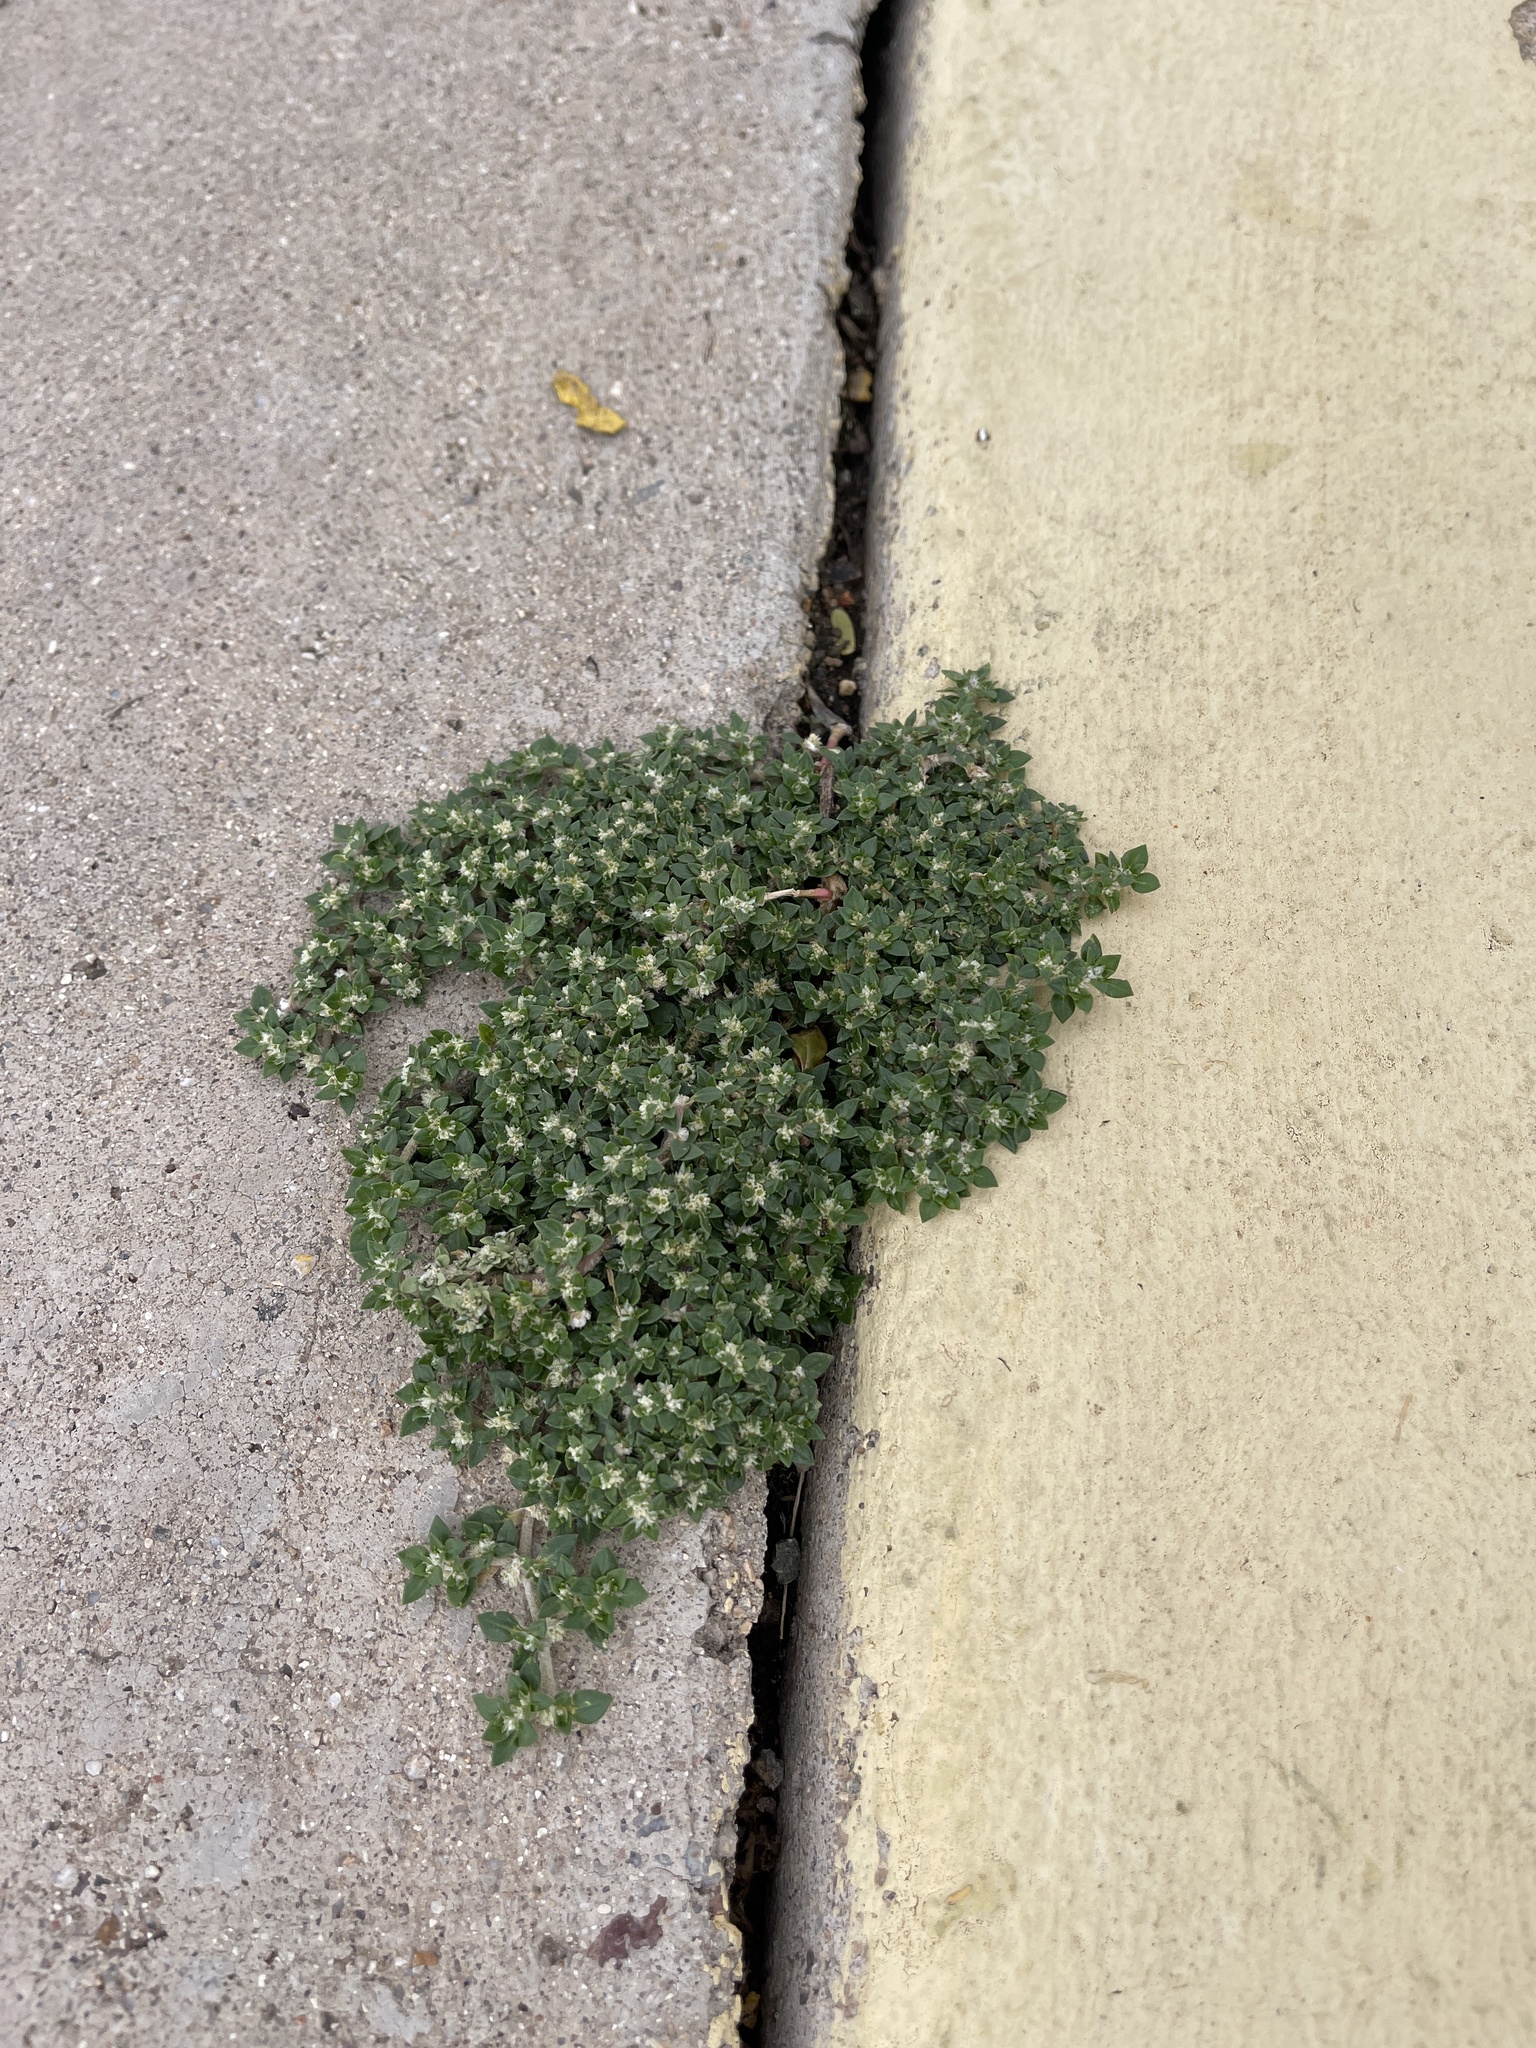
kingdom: Plantae
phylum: Tracheophyta
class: Magnoliopsida
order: Caryophyllales
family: Amaranthaceae
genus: Guilleminea
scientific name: Guilleminea densa
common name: Small matweed
